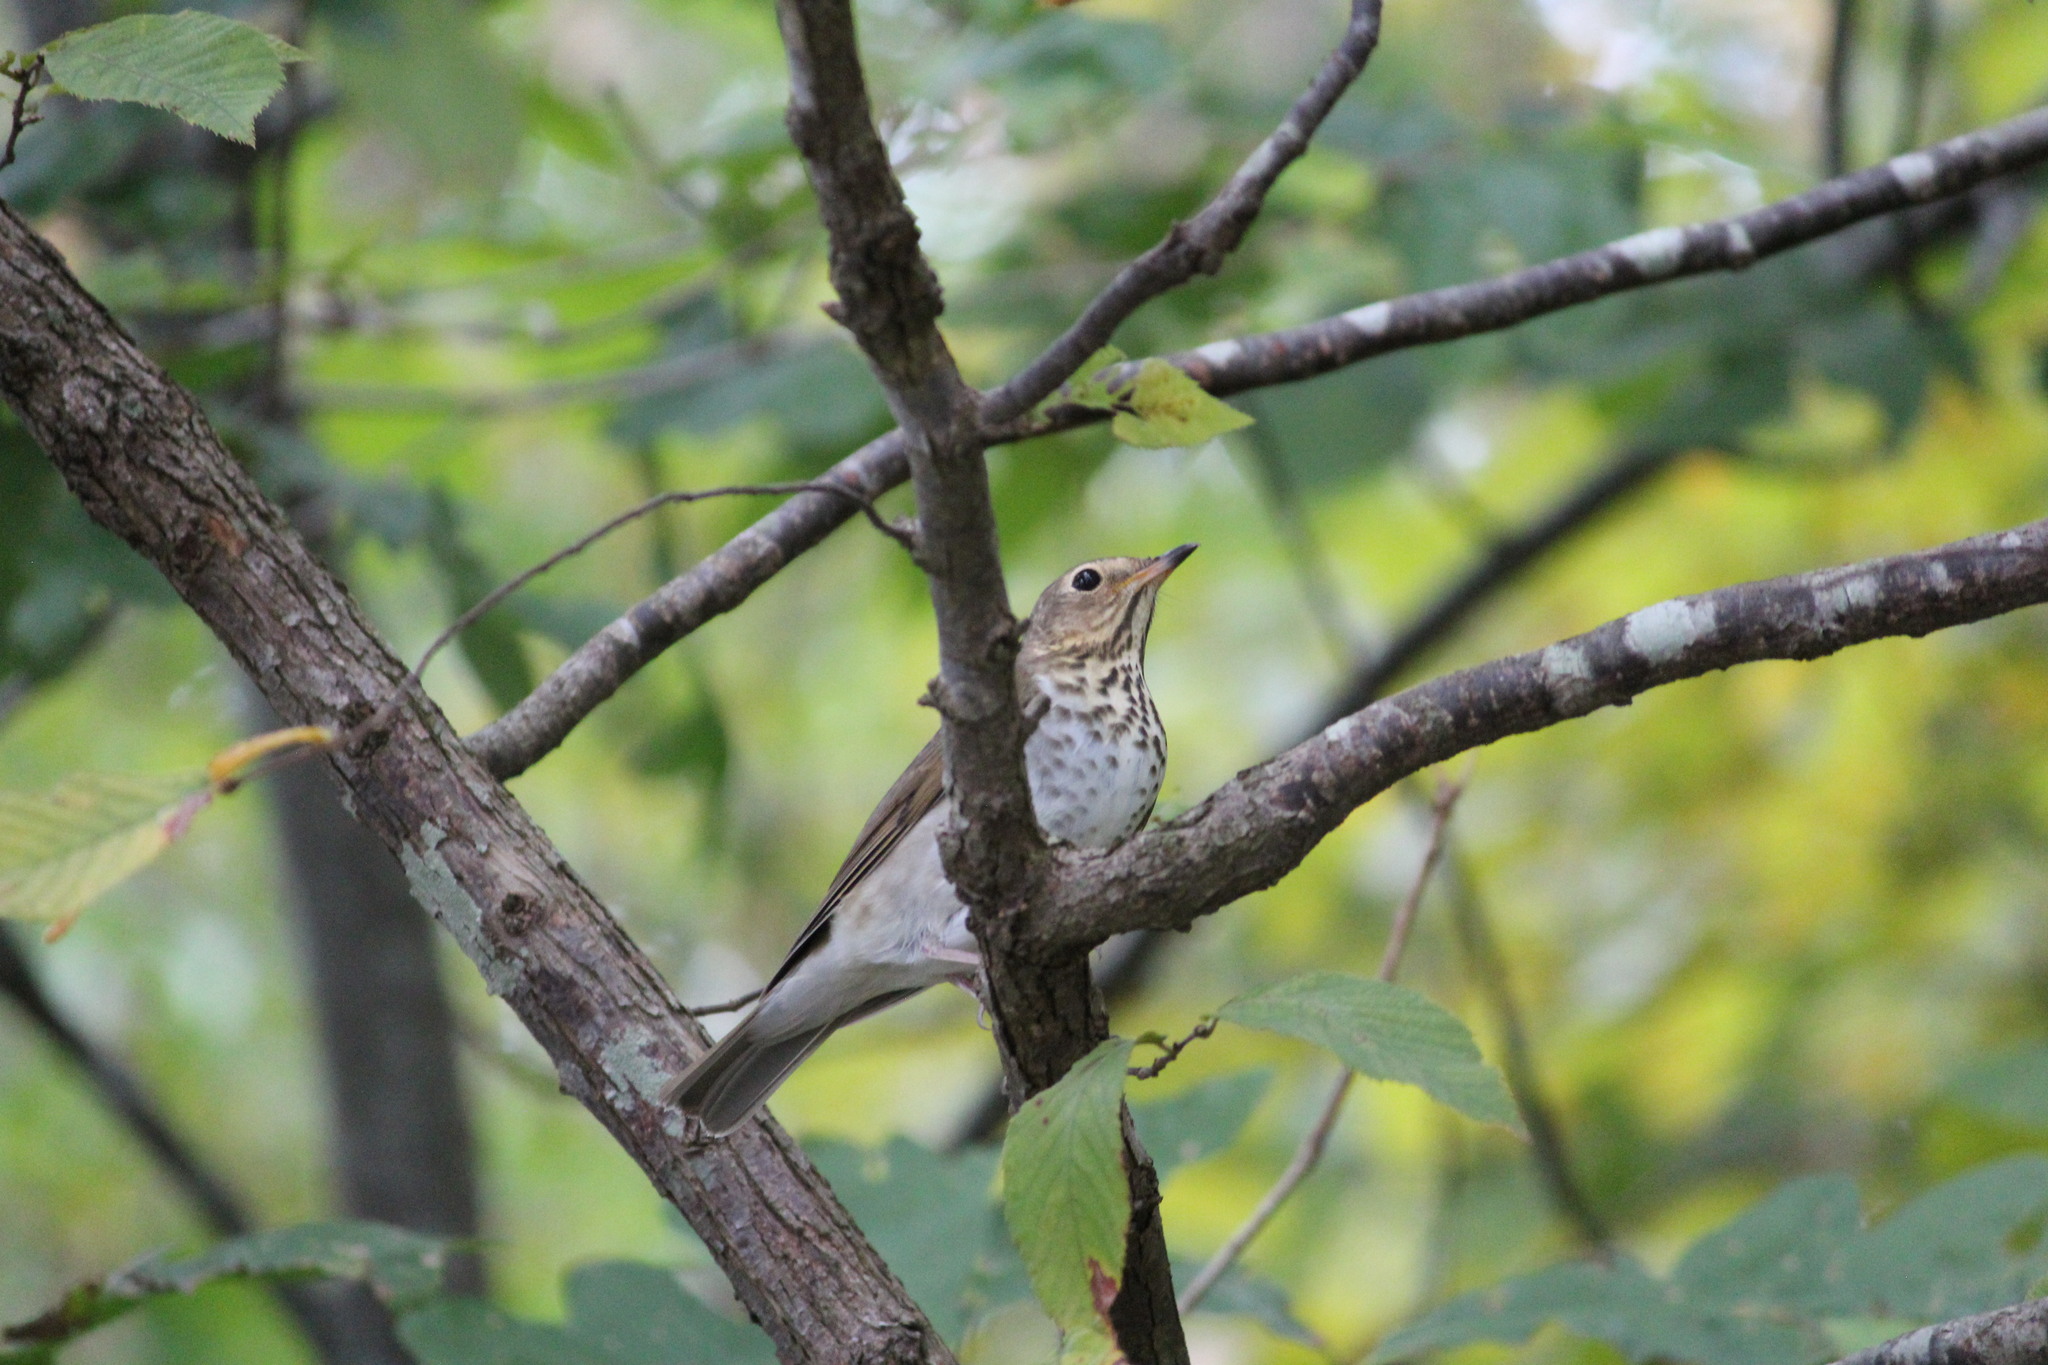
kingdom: Animalia
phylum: Chordata
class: Aves
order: Passeriformes
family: Turdidae
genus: Catharus
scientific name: Catharus ustulatus
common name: Swainson's thrush
